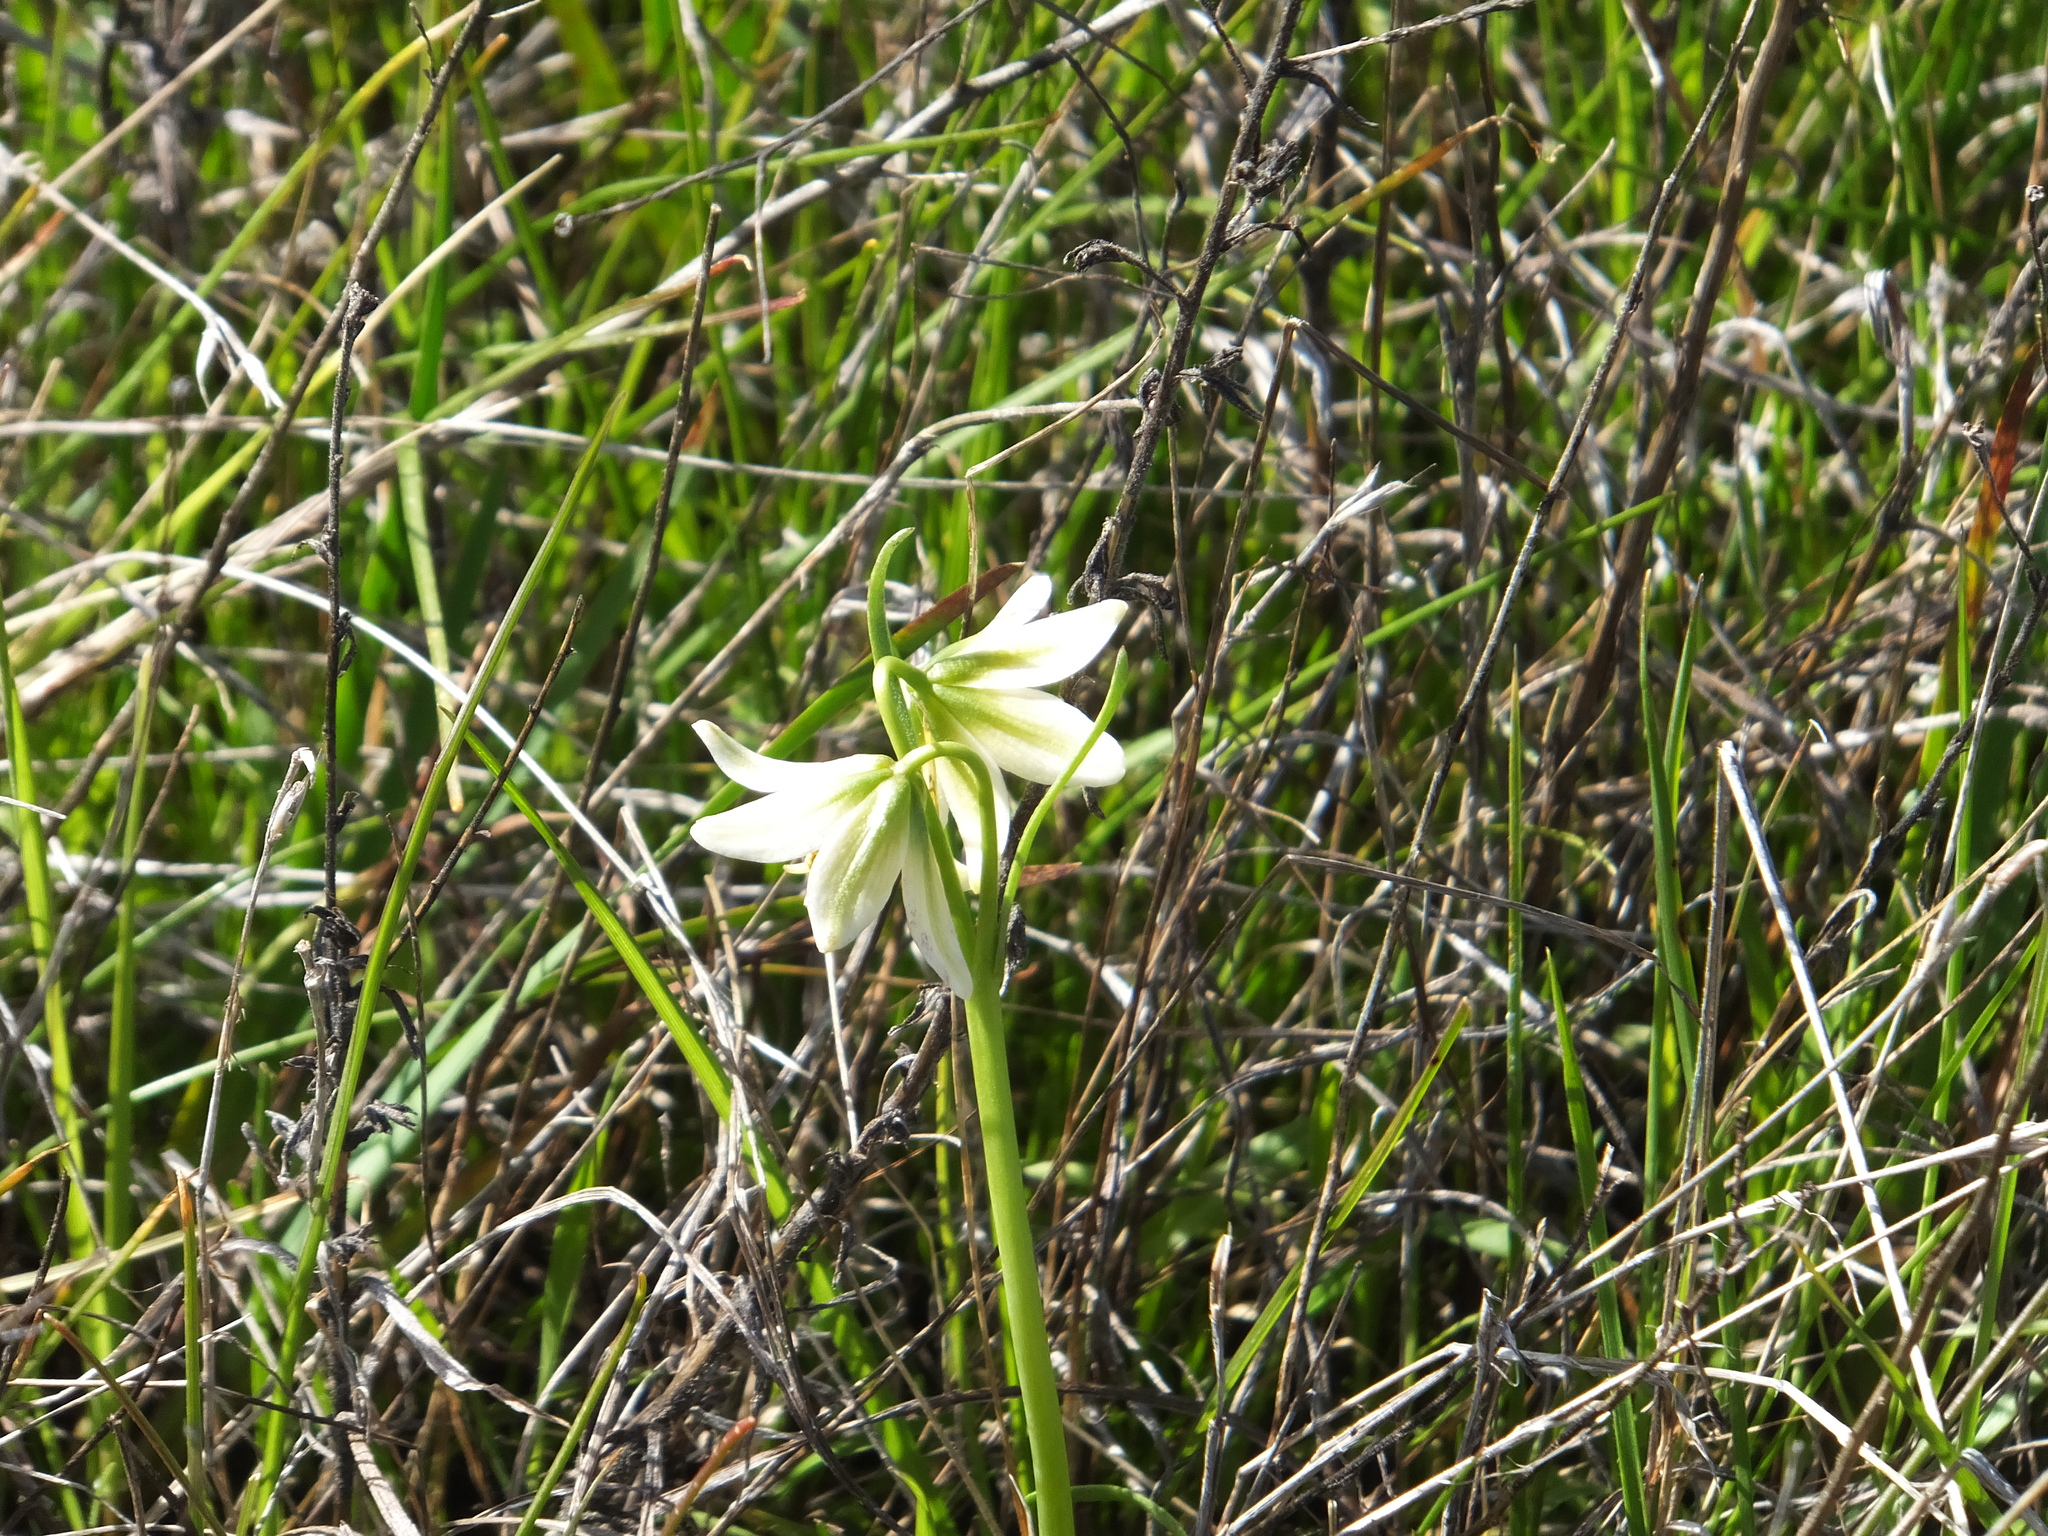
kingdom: Plantae
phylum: Tracheophyta
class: Liliopsida
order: Liliales
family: Liliaceae
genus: Fritillaria
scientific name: Fritillaria liliacea
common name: Fragrant fritillary
